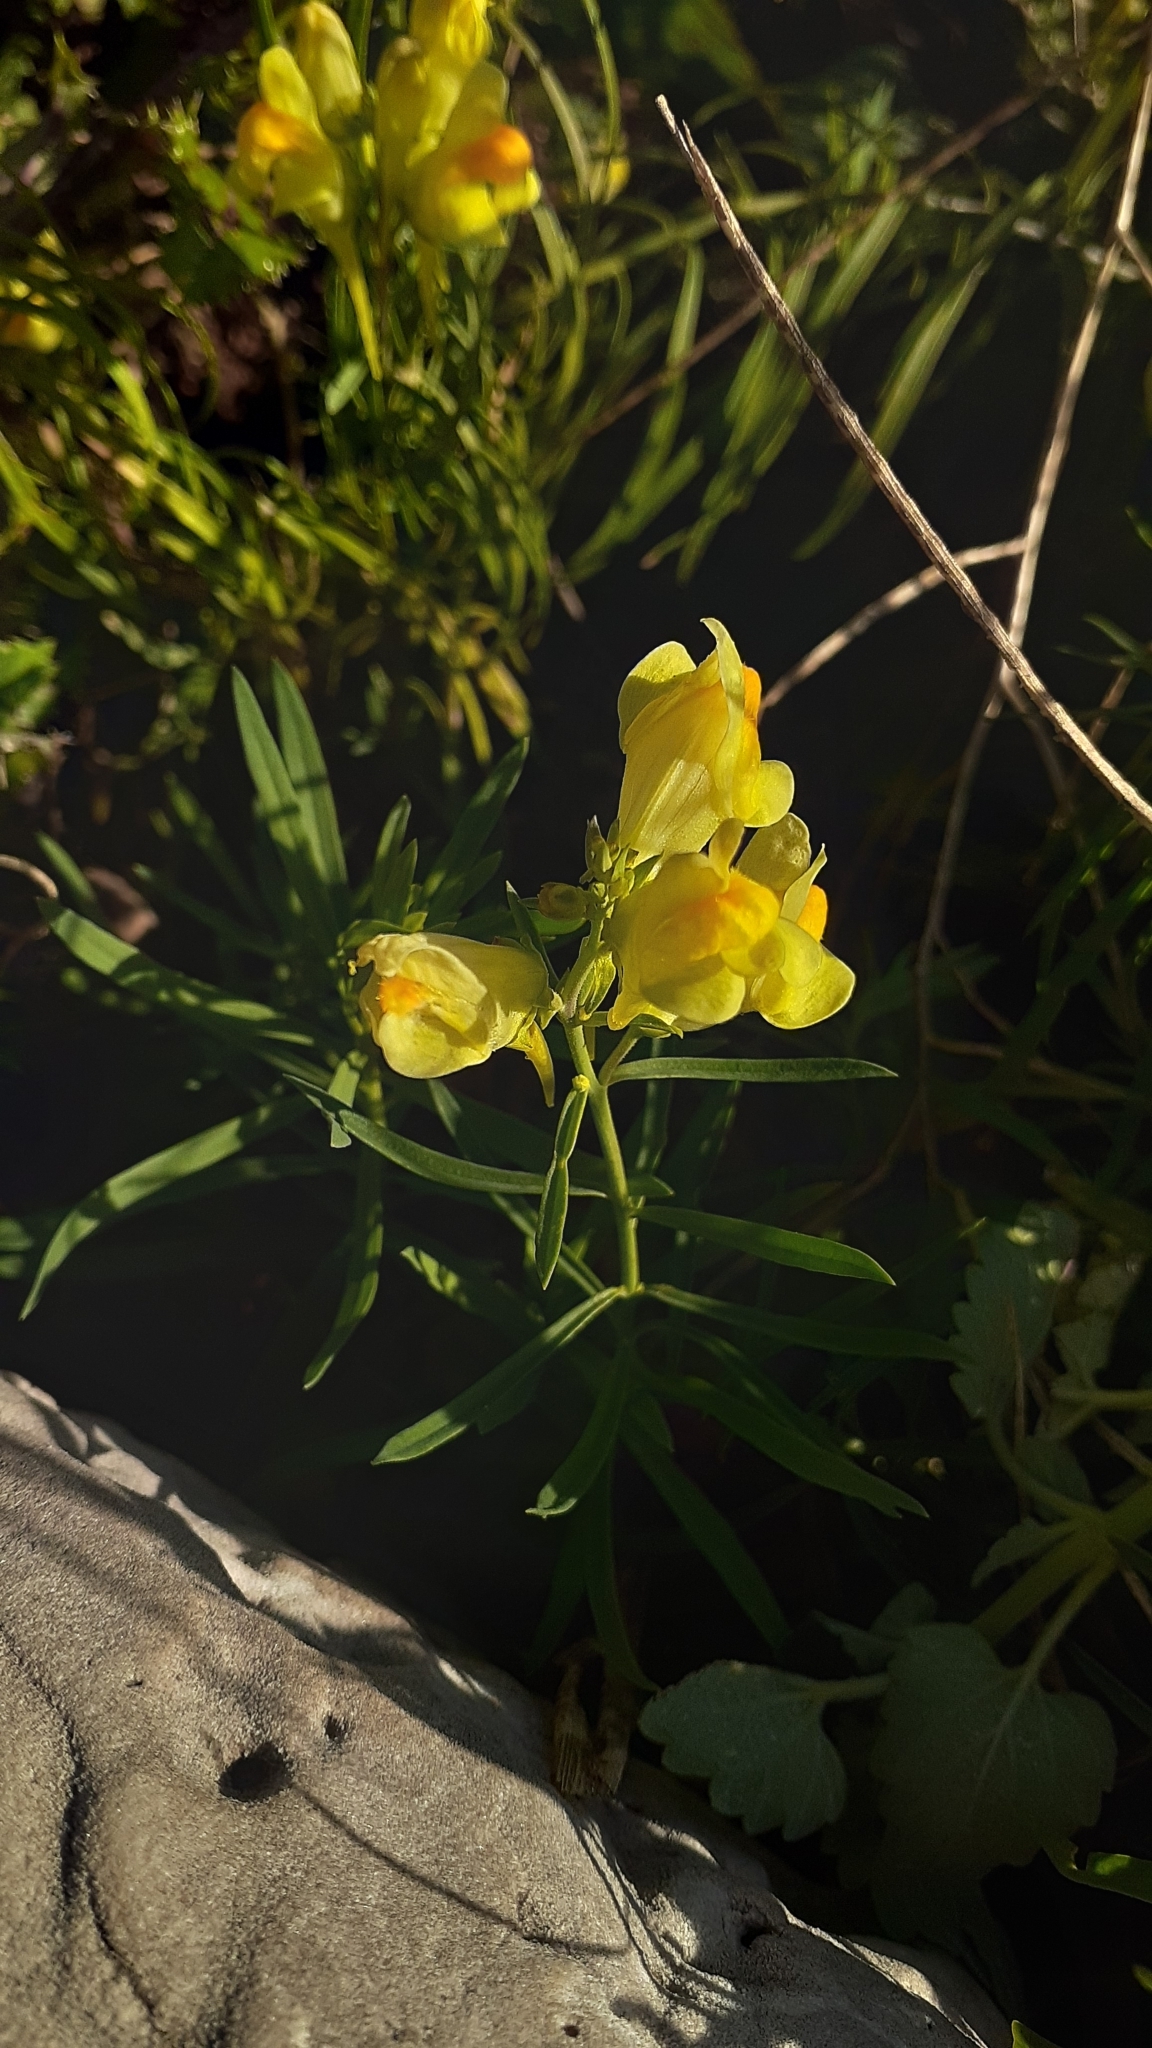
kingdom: Plantae
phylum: Tracheophyta
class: Magnoliopsida
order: Lamiales
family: Plantaginaceae
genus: Linaria
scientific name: Linaria vulgaris
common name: Butter and eggs
